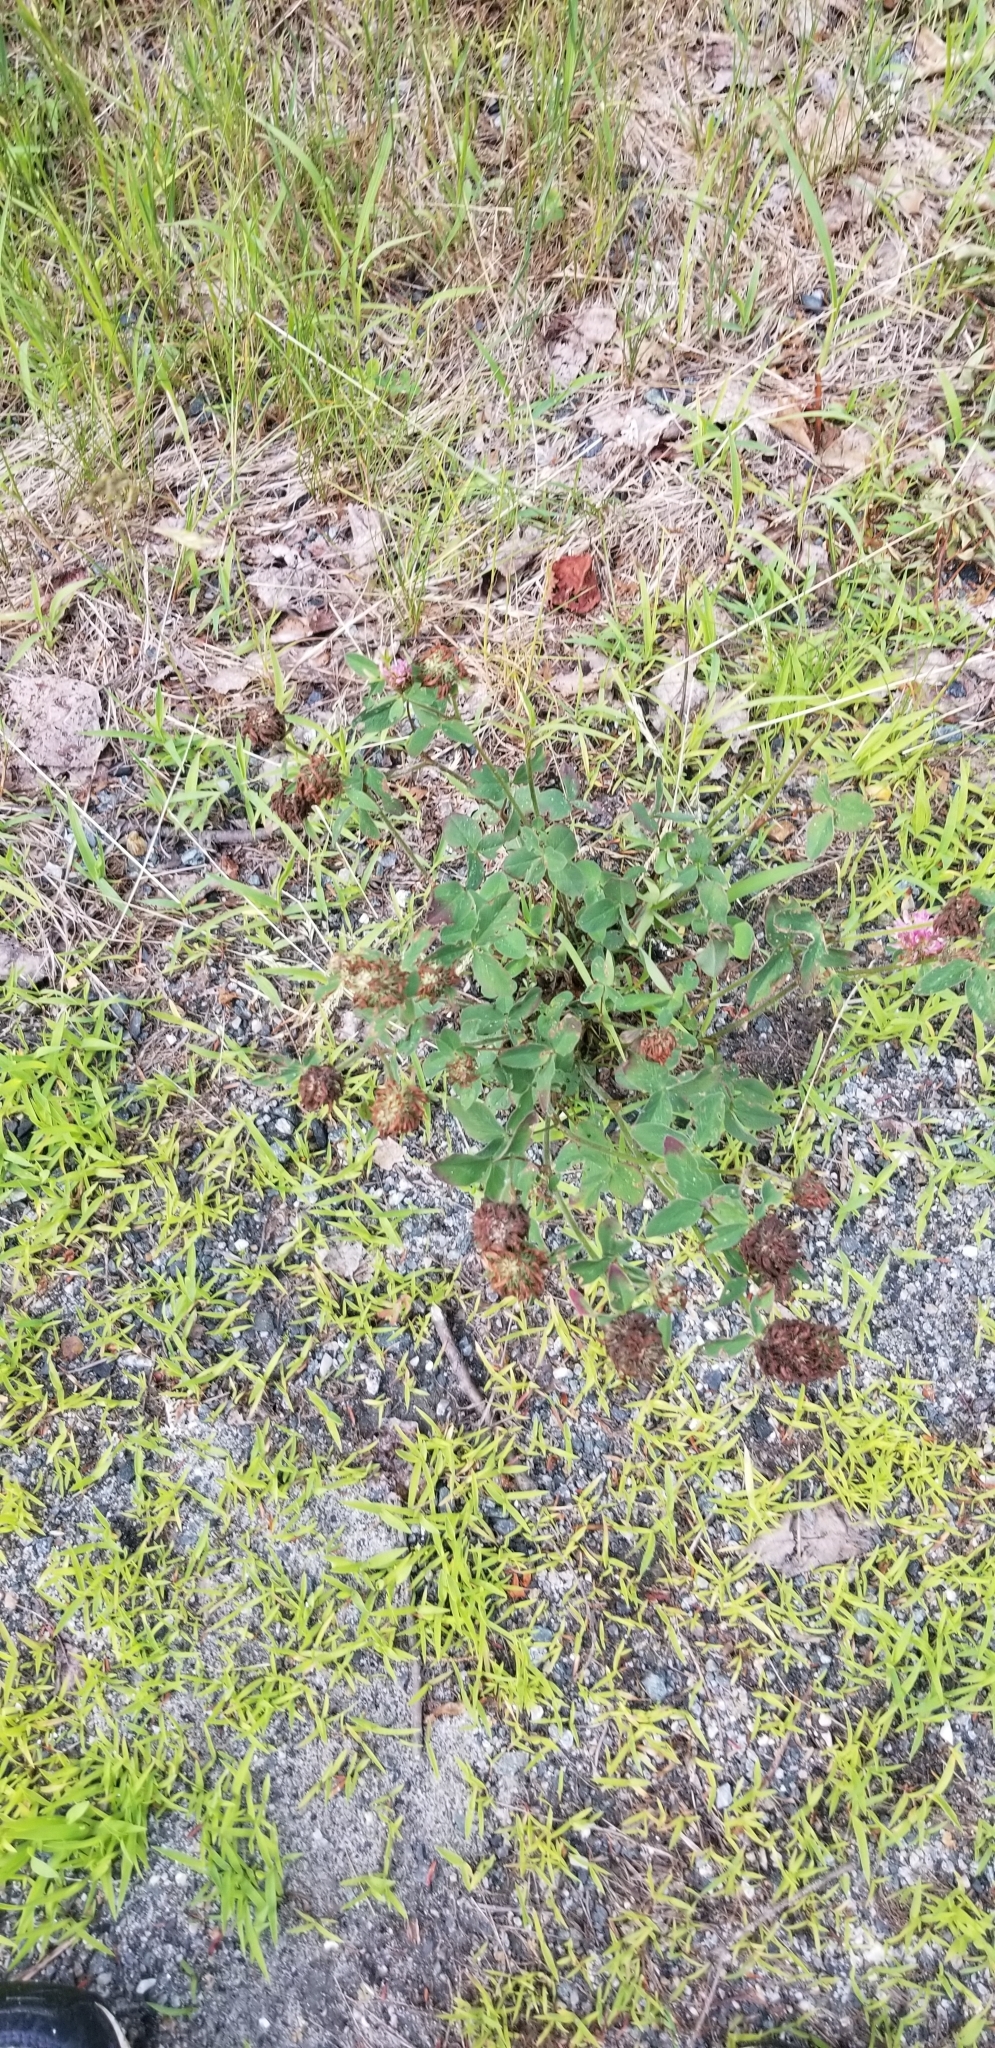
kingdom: Plantae
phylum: Tracheophyta
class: Magnoliopsida
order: Fabales
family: Fabaceae
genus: Trifolium
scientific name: Trifolium pratense
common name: Red clover
